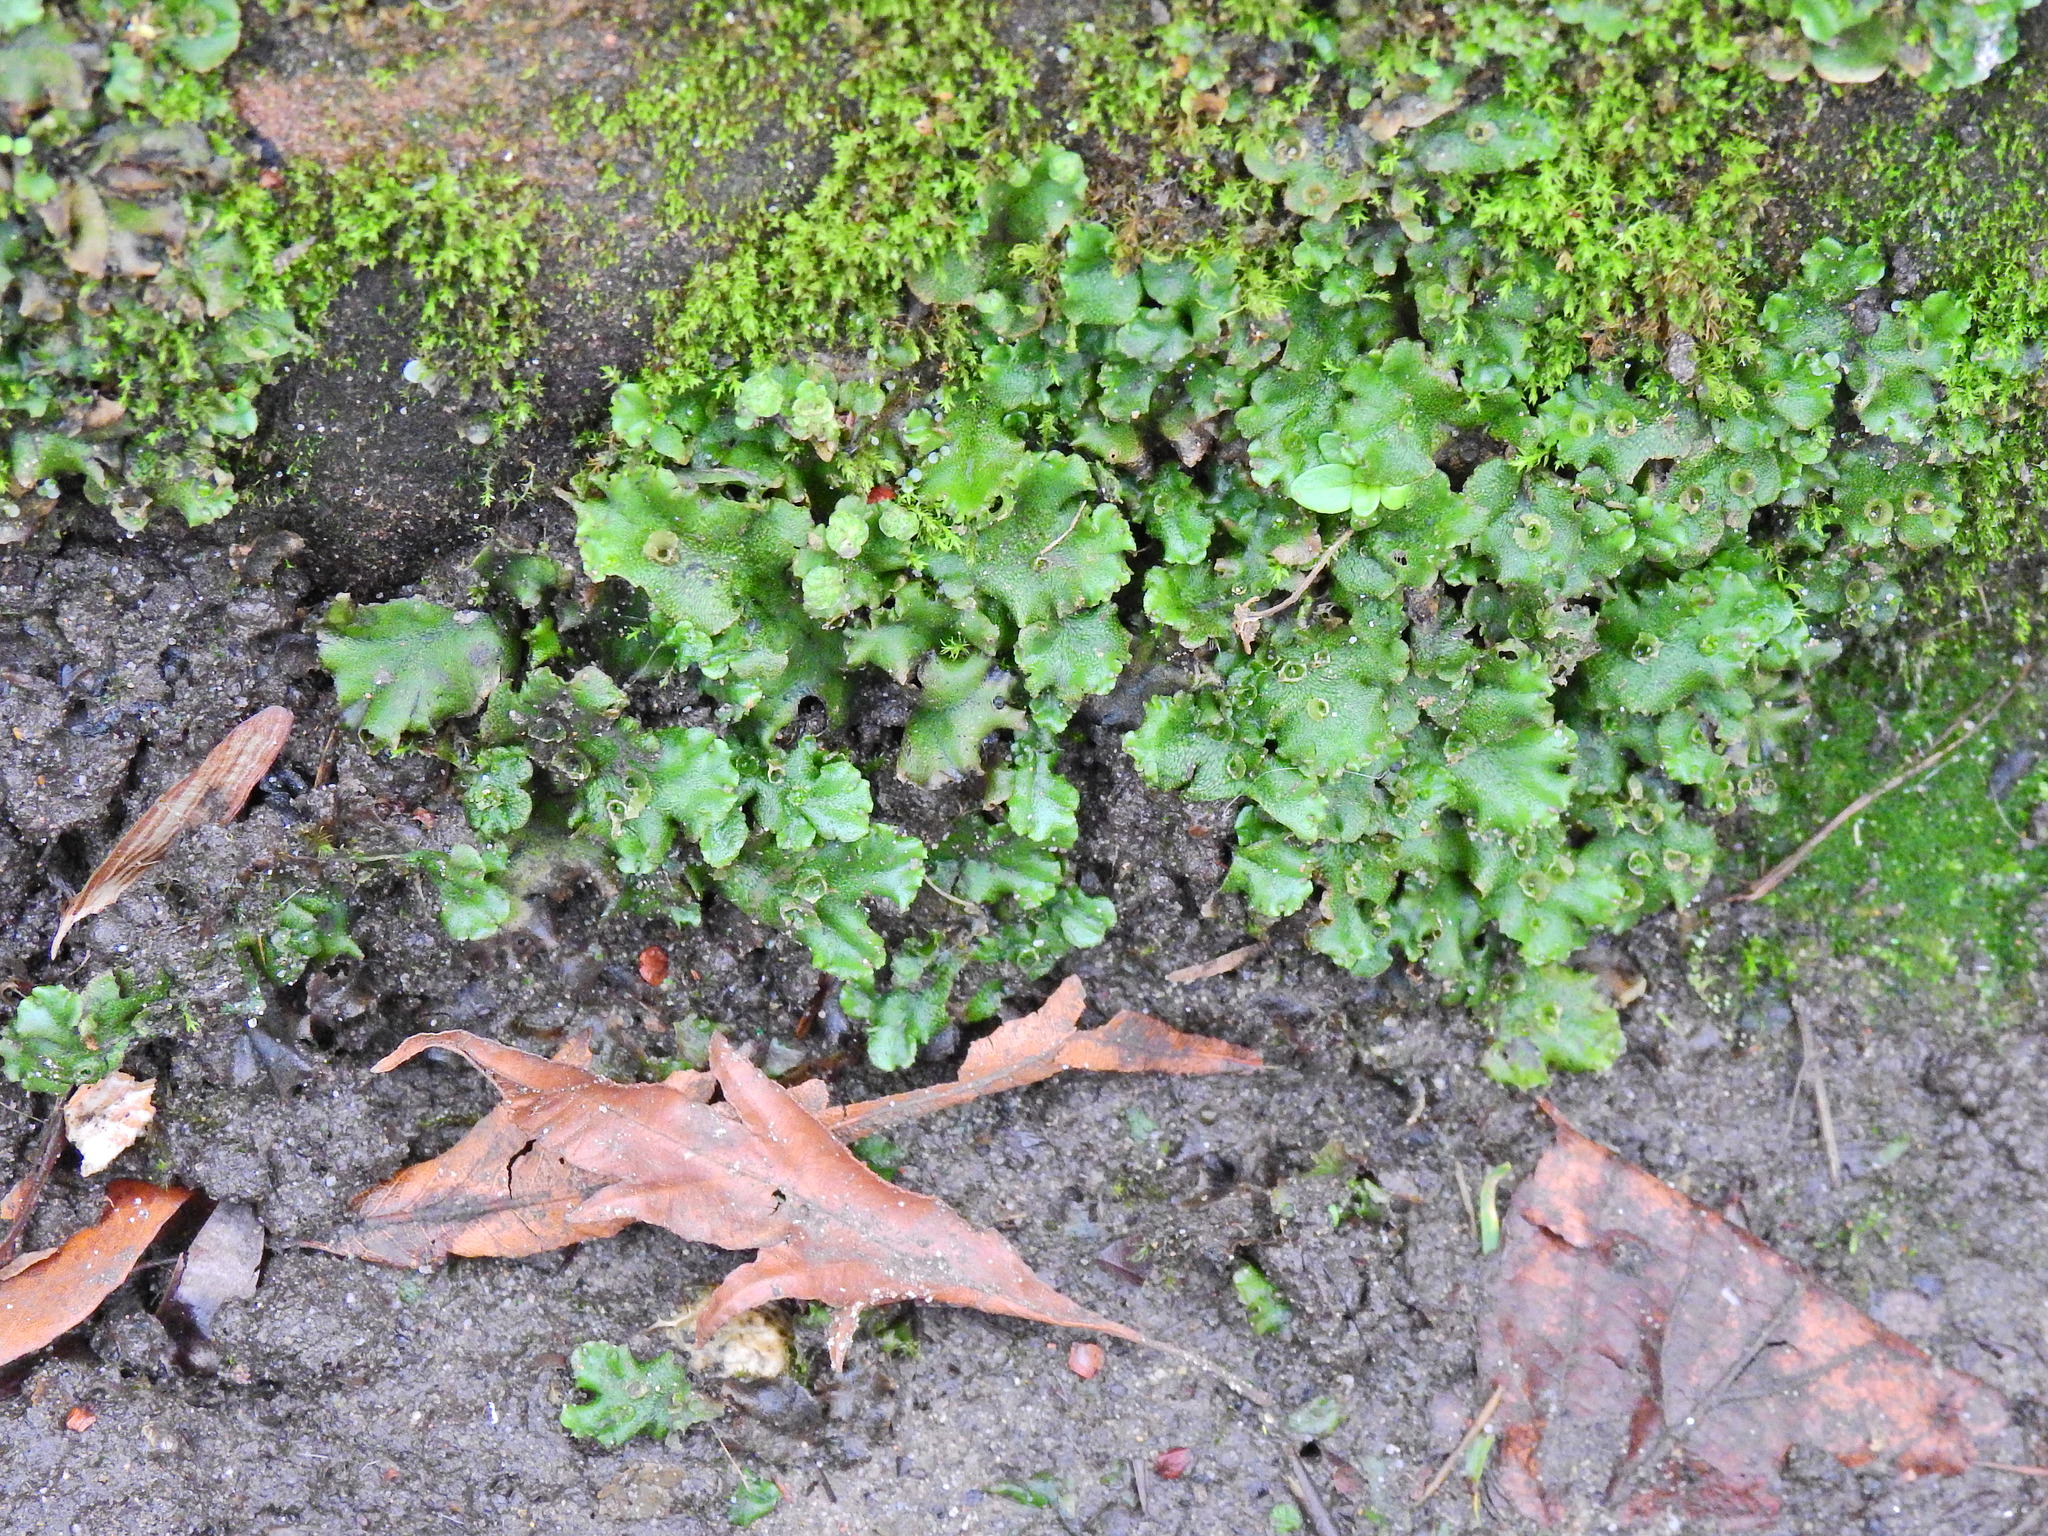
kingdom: Plantae
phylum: Marchantiophyta
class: Marchantiopsida
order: Marchantiales
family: Marchantiaceae
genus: Marchantia
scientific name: Marchantia polymorpha
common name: Common liverwort
